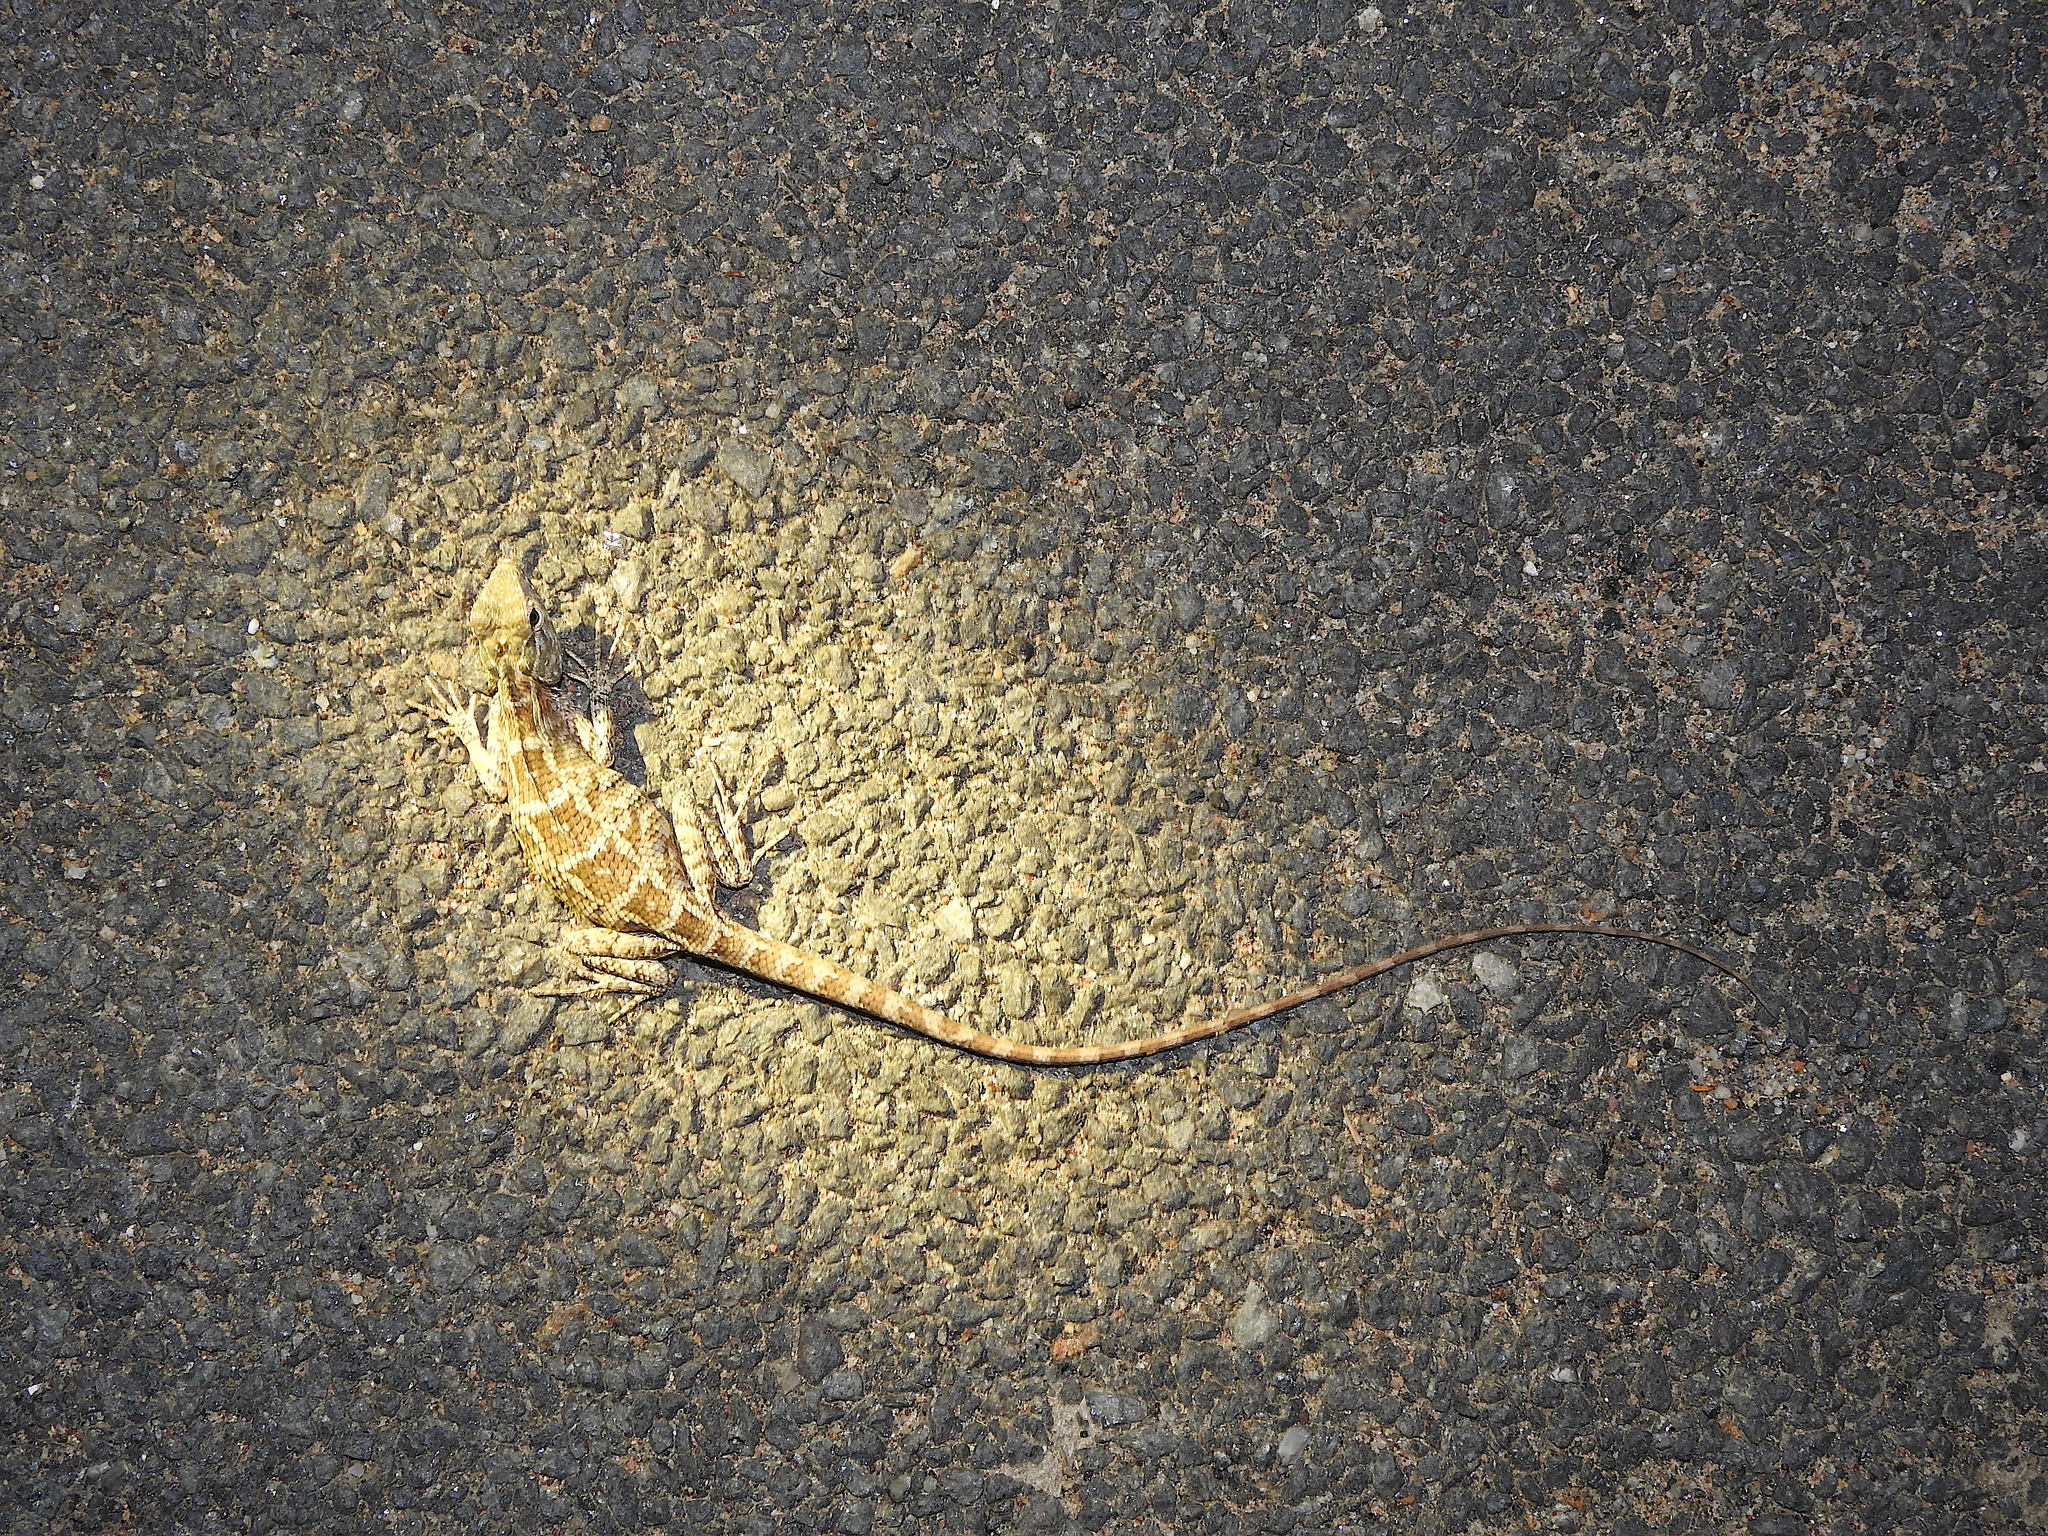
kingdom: Animalia
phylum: Chordata
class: Squamata
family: Agamidae
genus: Calotes
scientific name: Calotes versicolor
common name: Oriental garden lizard
